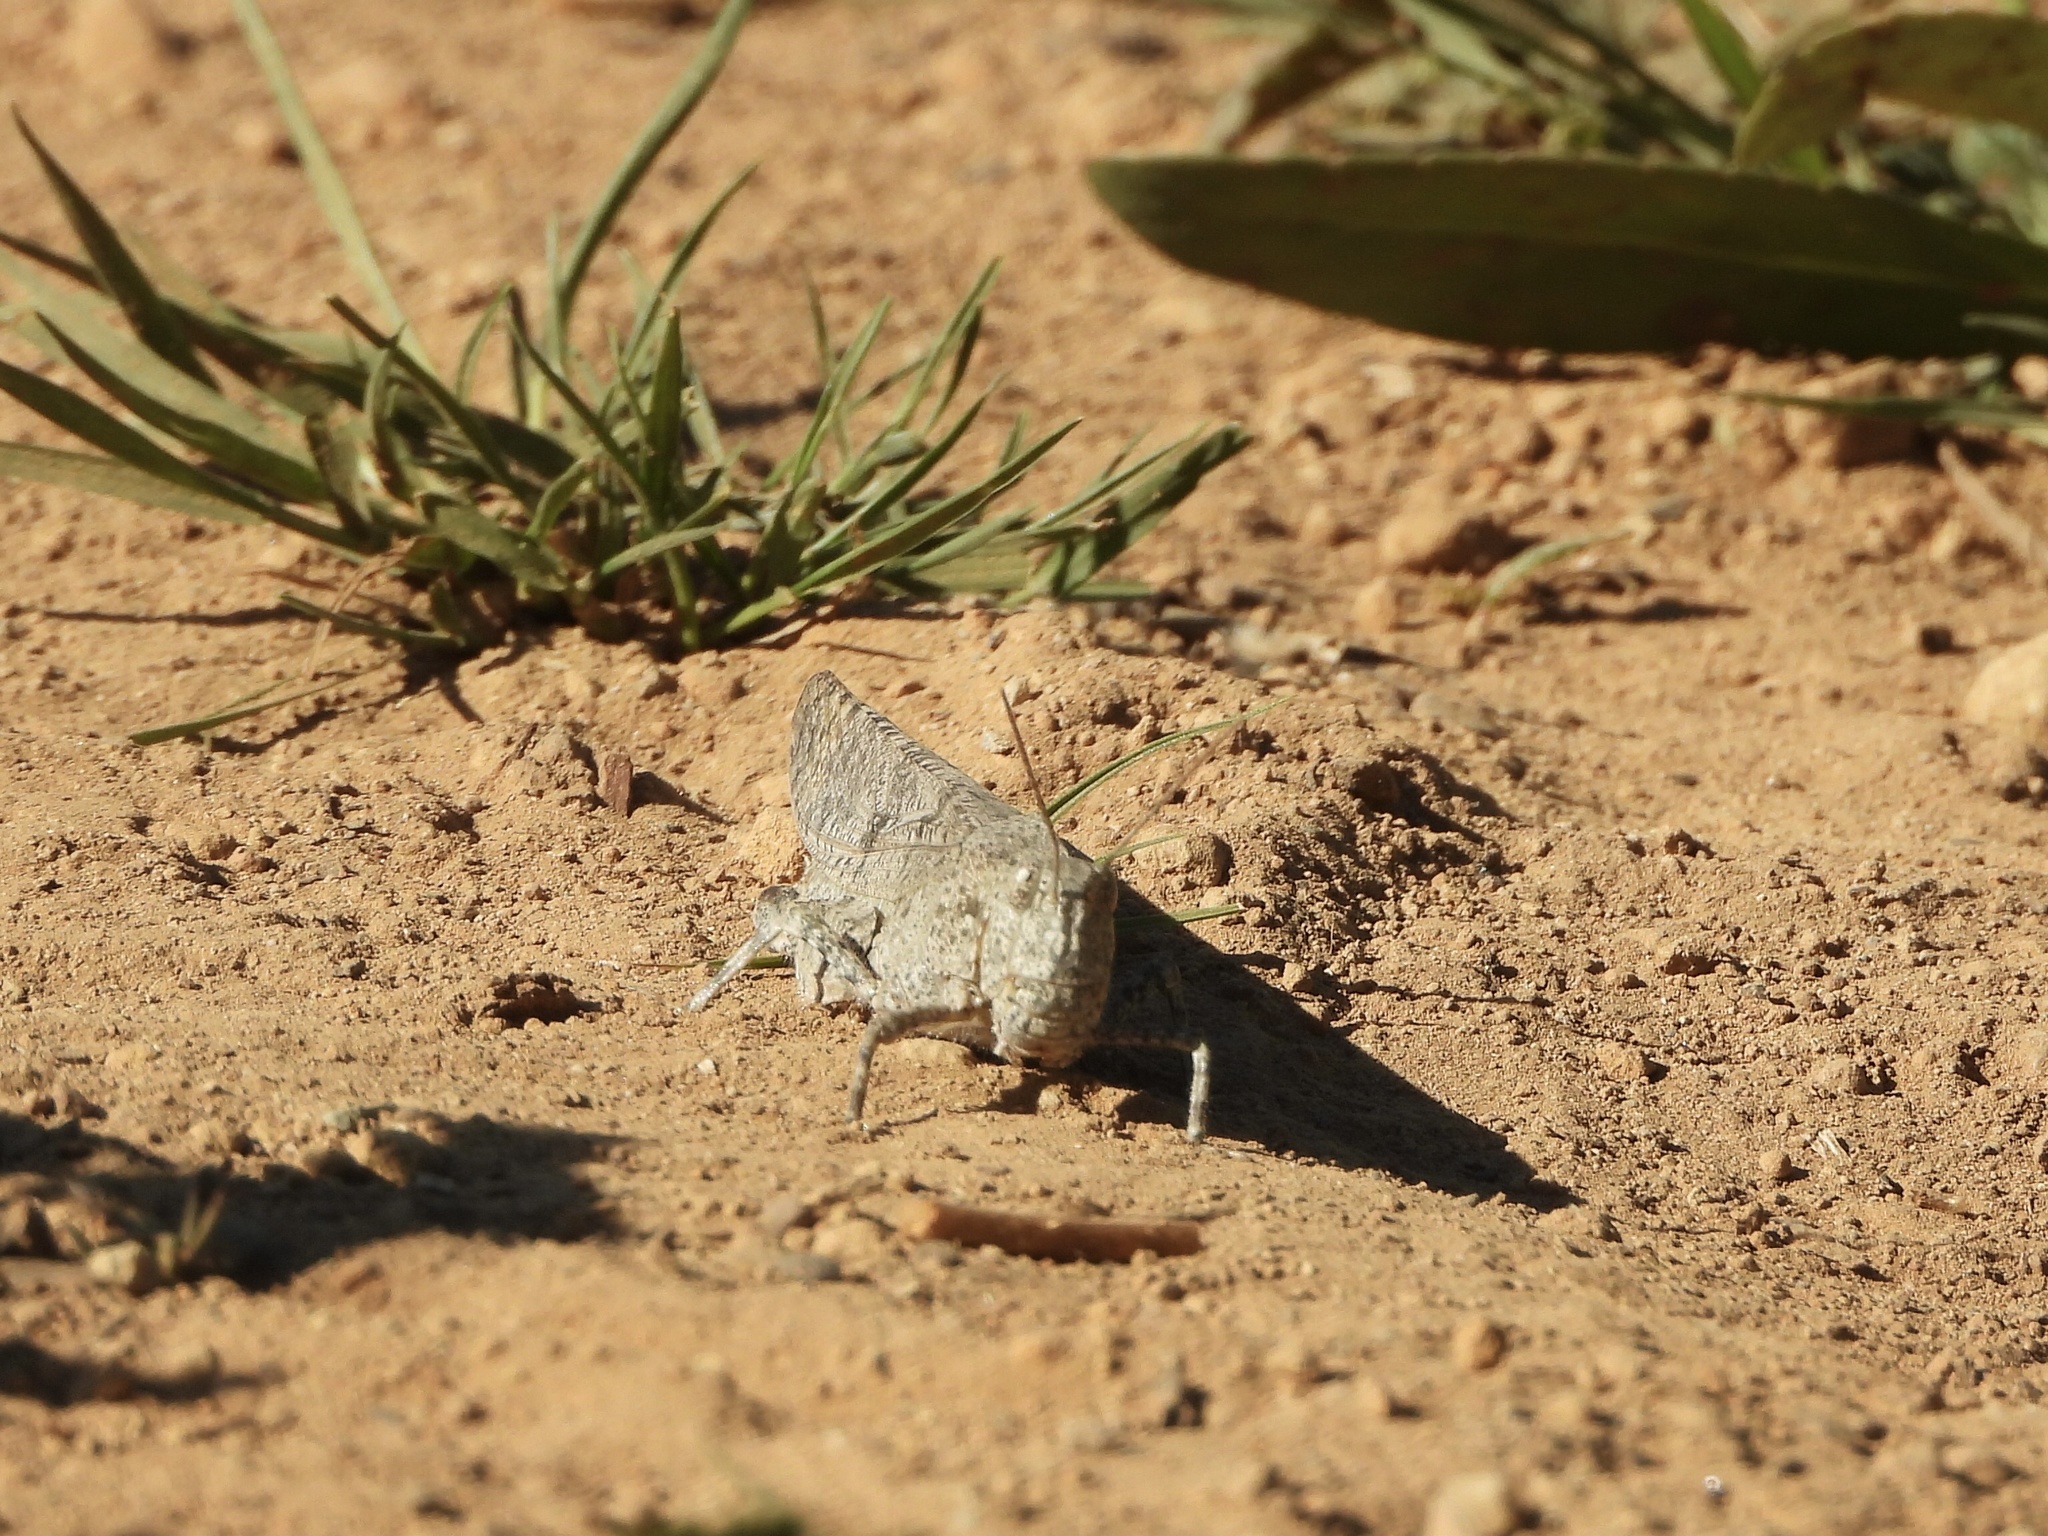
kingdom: Animalia
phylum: Arthropoda
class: Insecta
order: Orthoptera
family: Acrididae
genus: Dissosteira
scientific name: Dissosteira carolina
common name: Carolina grasshopper
